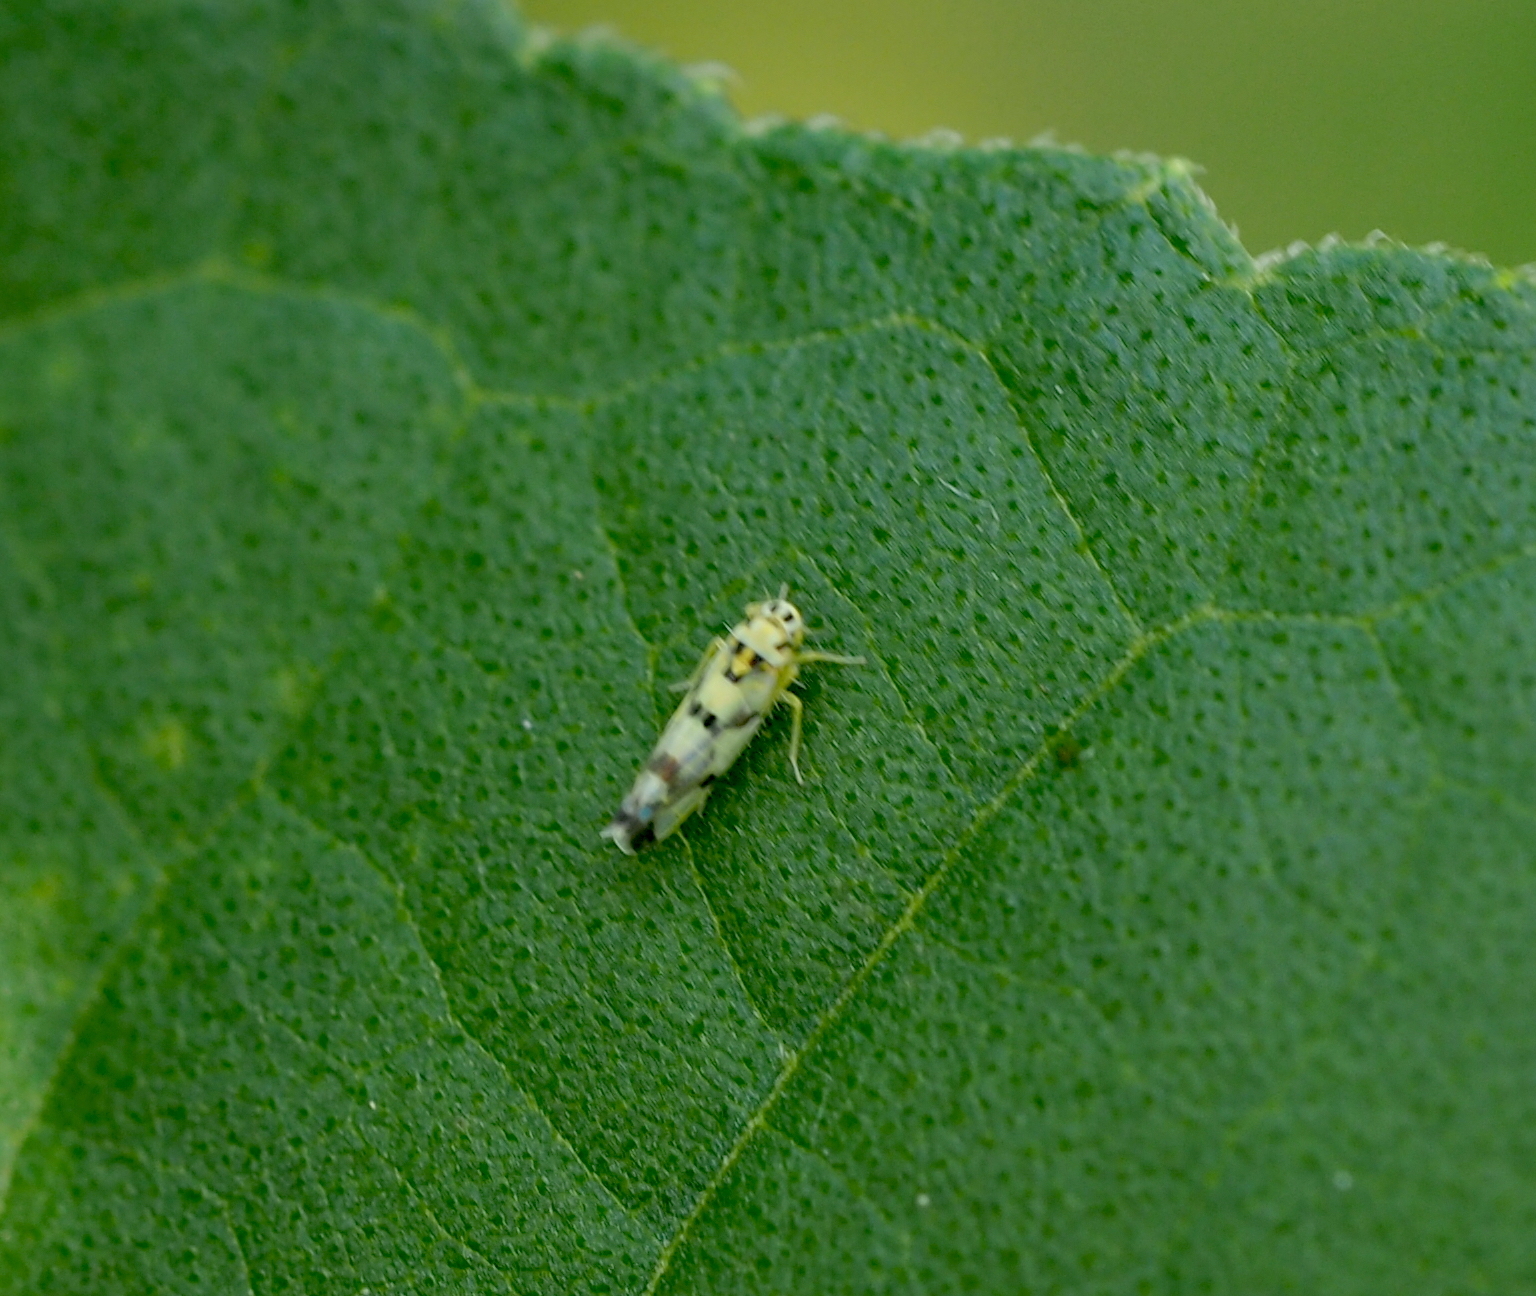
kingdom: Animalia
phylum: Arthropoda
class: Insecta
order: Hemiptera
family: Cicadellidae
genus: Eupteryx
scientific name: Eupteryx atropunctata
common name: Leafhopper
